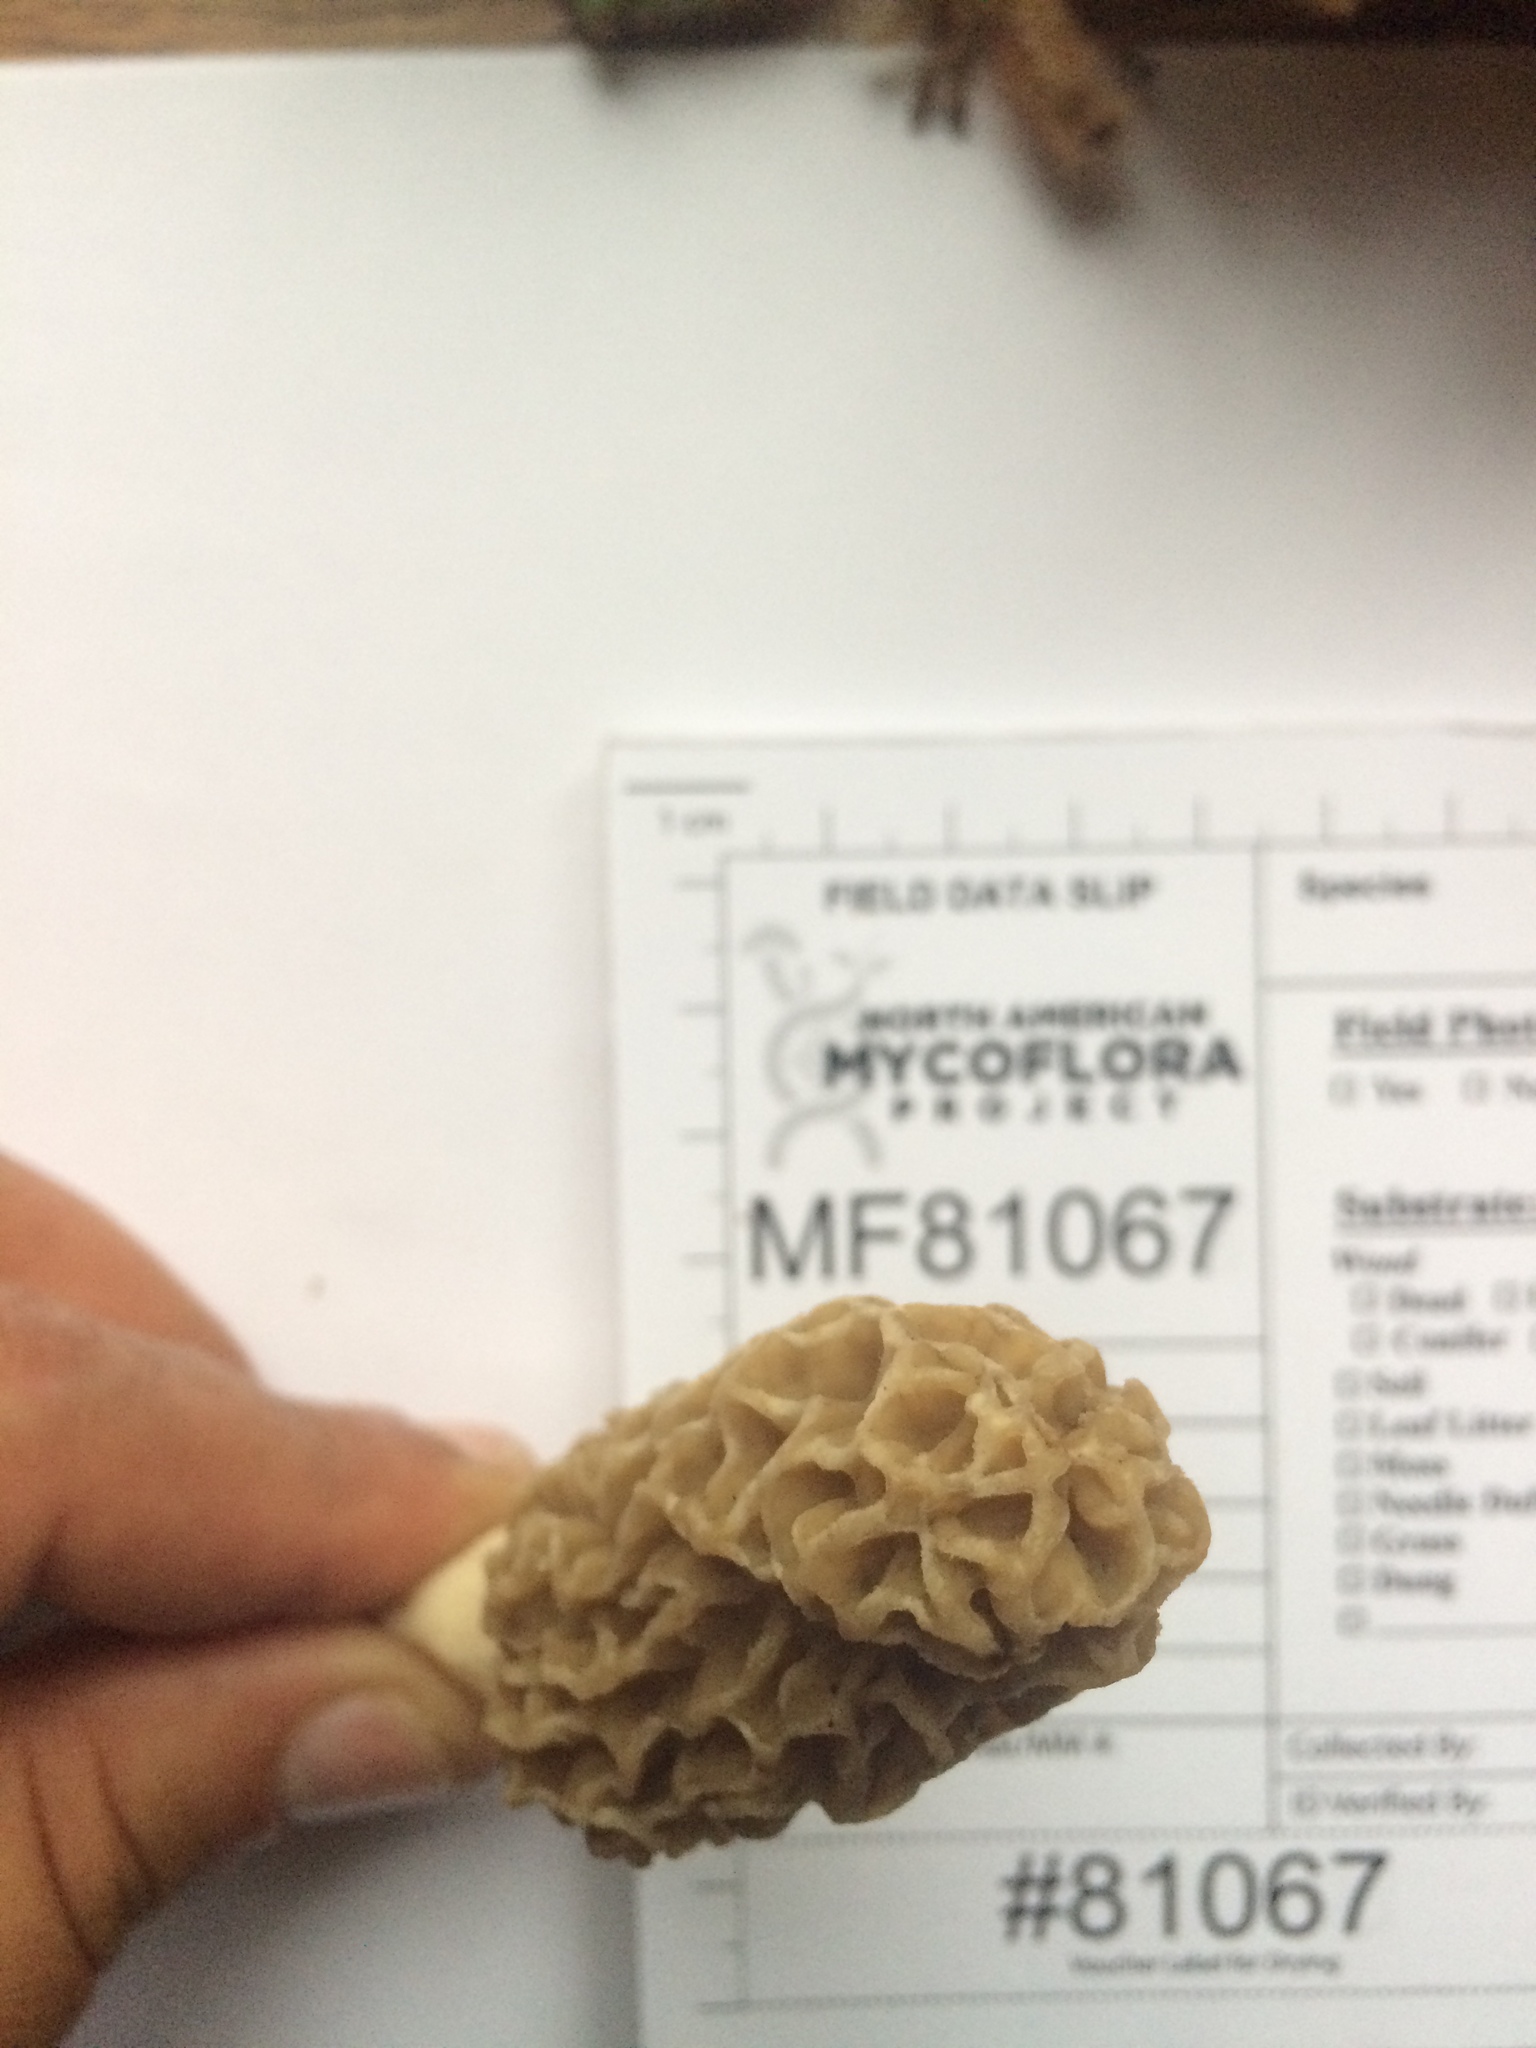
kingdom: Fungi
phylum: Ascomycota
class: Pezizomycetes
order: Pezizales
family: Morchellaceae
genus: Morchella
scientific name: Morchella americana
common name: White morel
